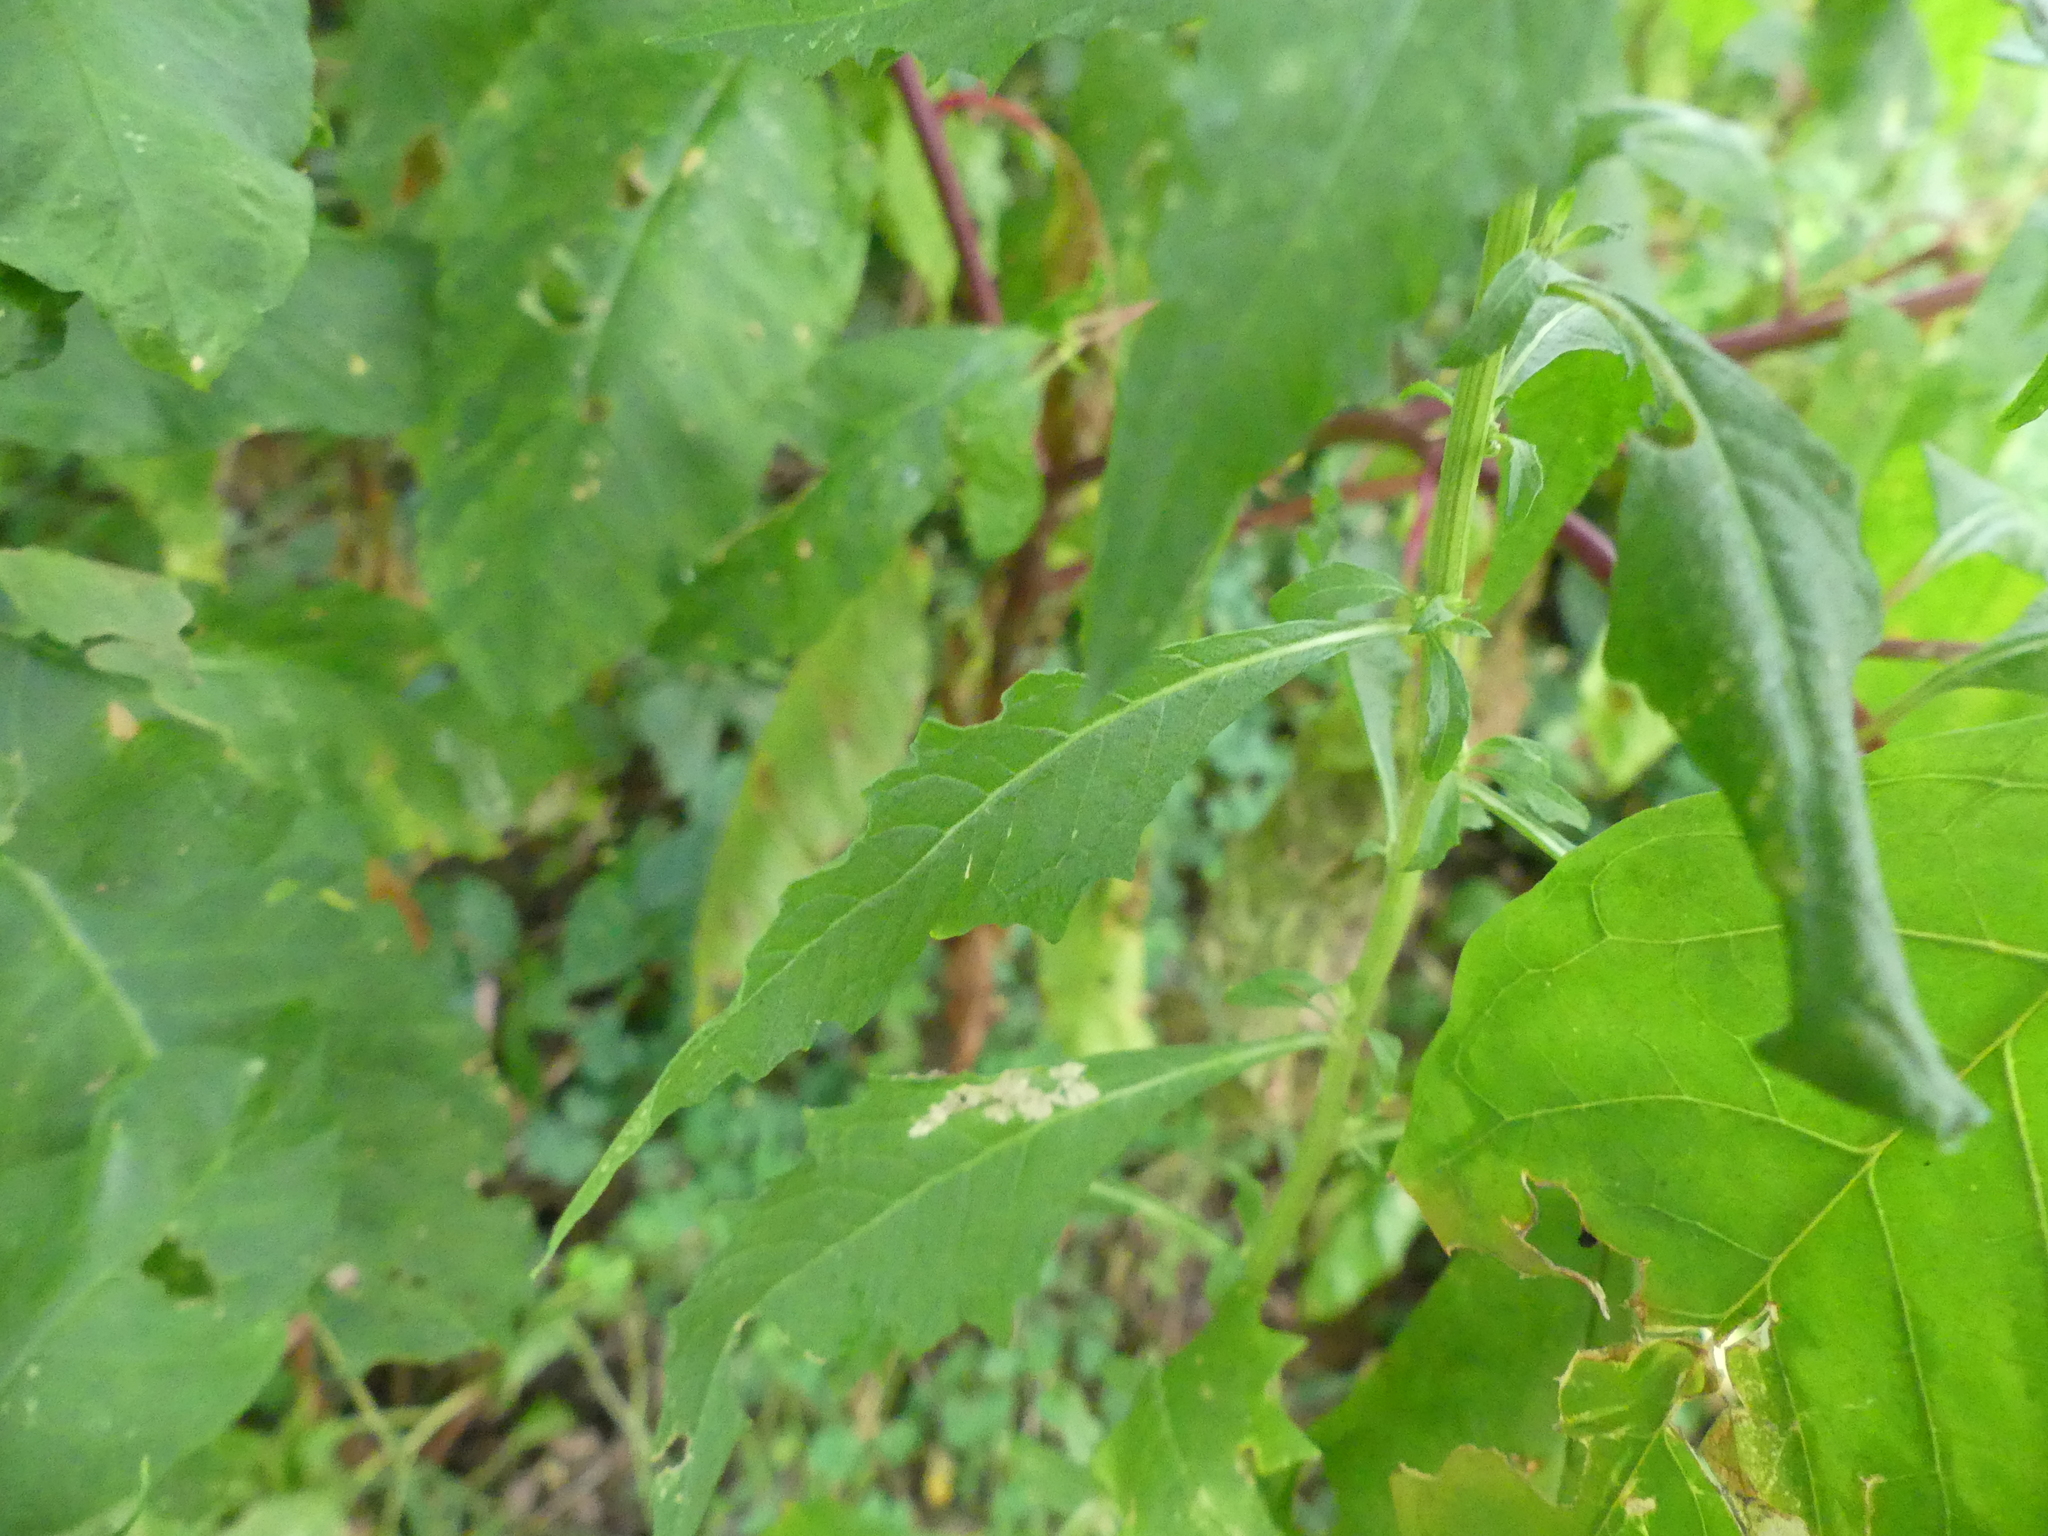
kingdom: Plantae
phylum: Tracheophyta
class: Magnoliopsida
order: Caryophyllales
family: Amaranthaceae
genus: Dysphania
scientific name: Dysphania ambrosioides
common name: Wormseed
